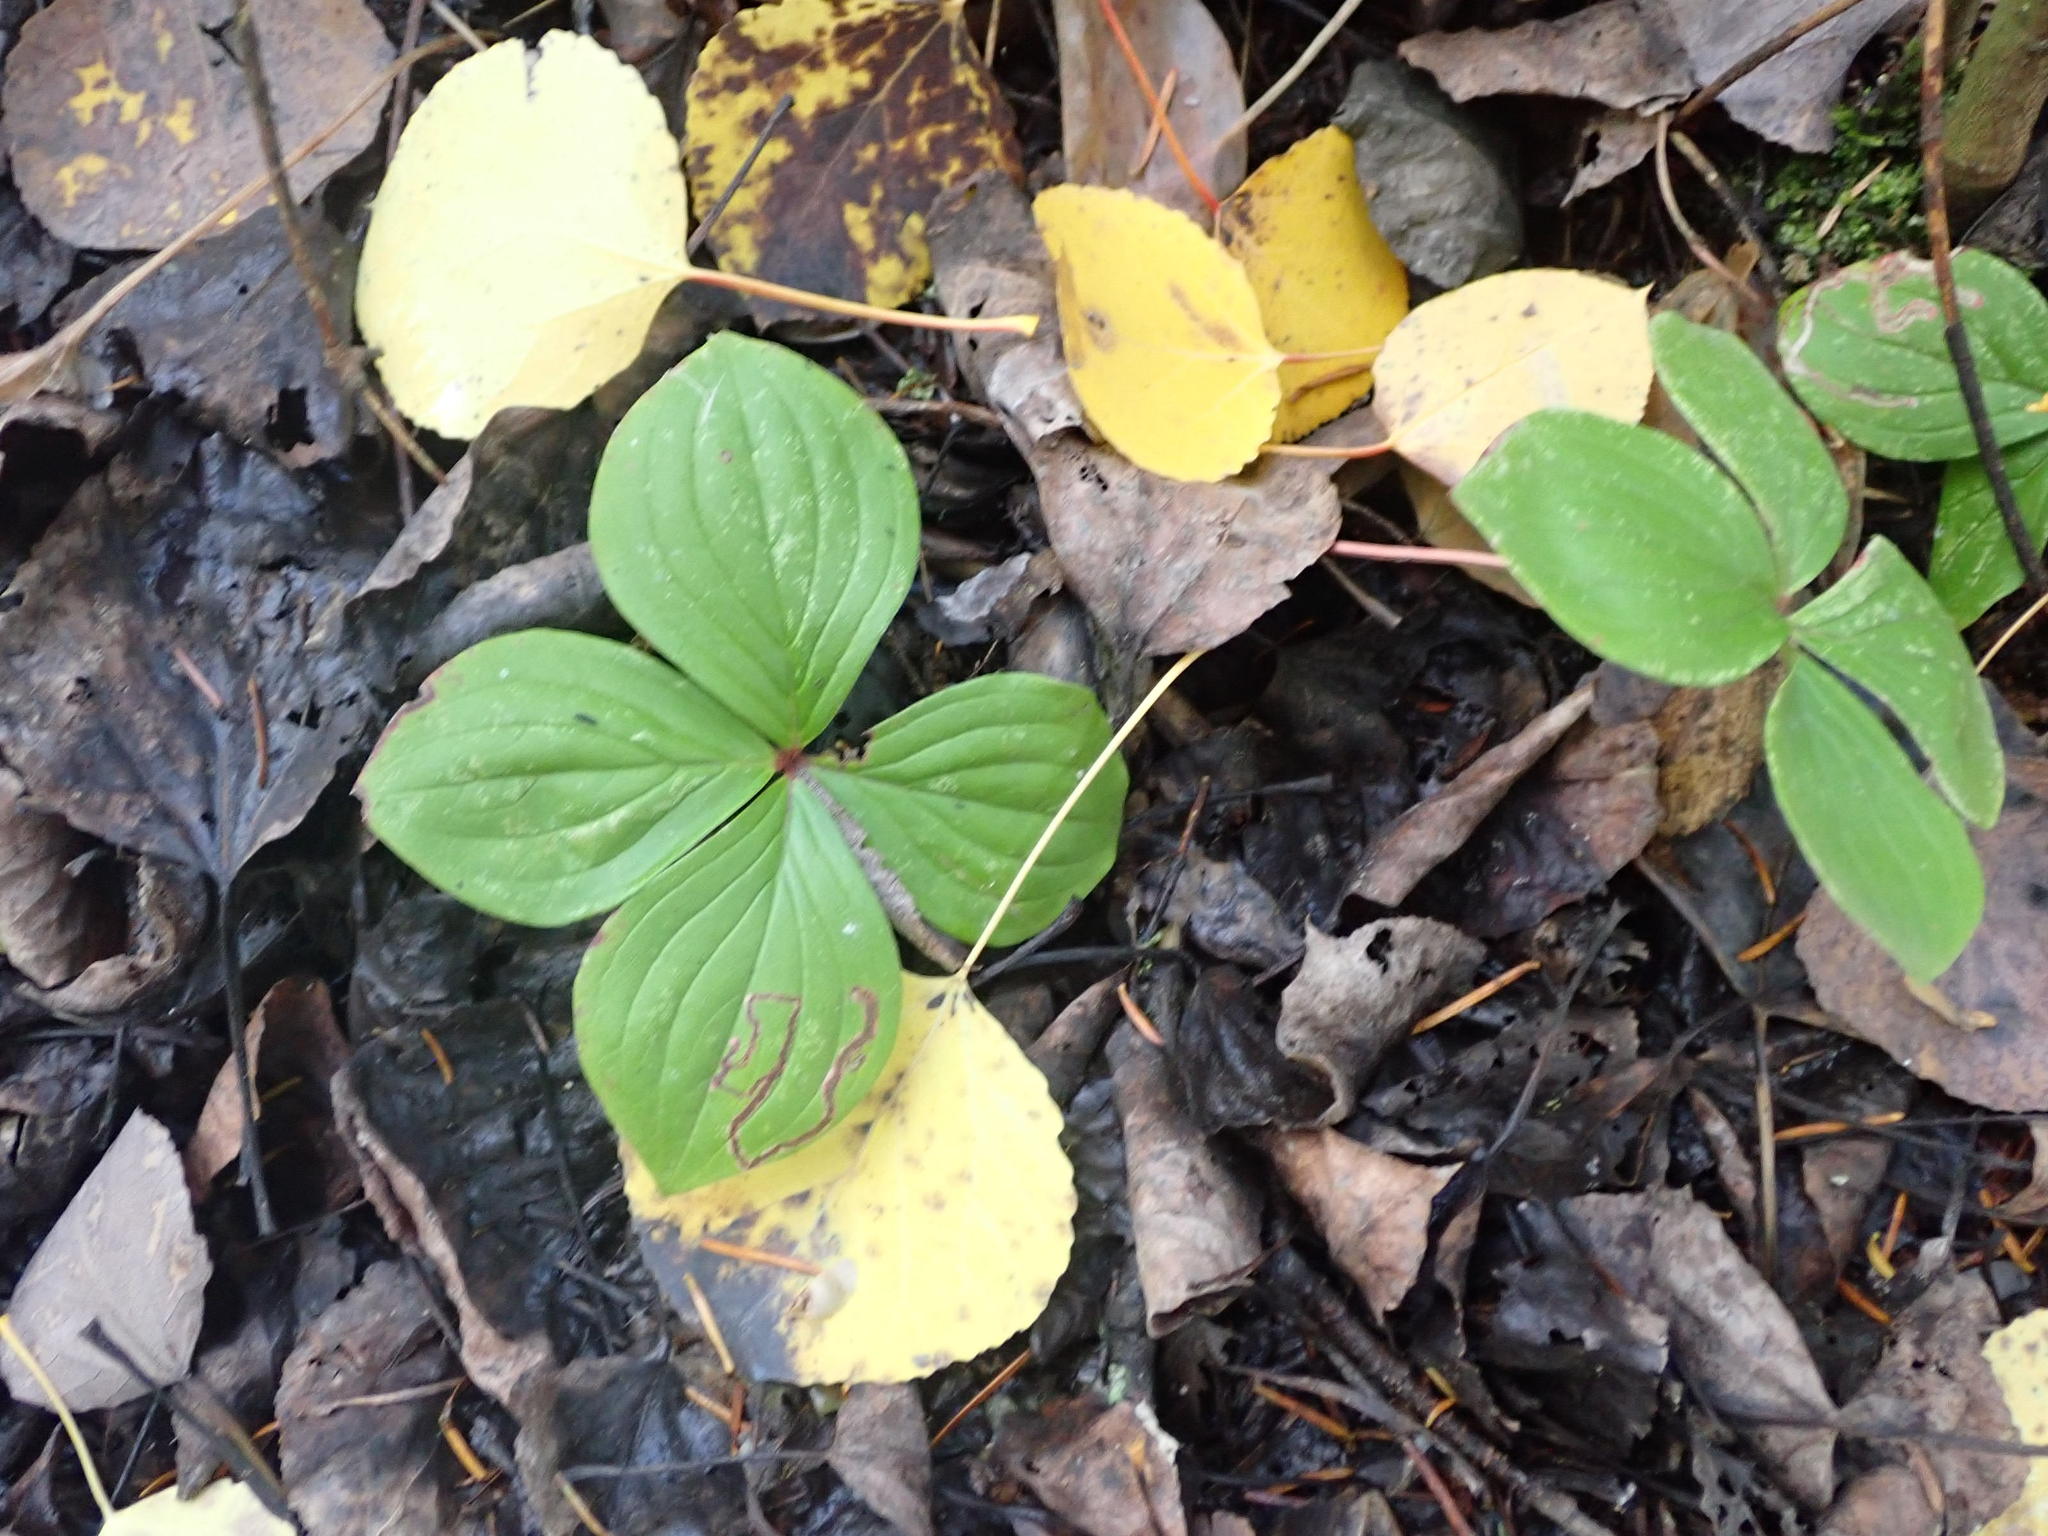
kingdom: Plantae
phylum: Tracheophyta
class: Magnoliopsida
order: Cornales
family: Cornaceae
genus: Cornus
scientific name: Cornus canadensis
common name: Creeping dogwood
